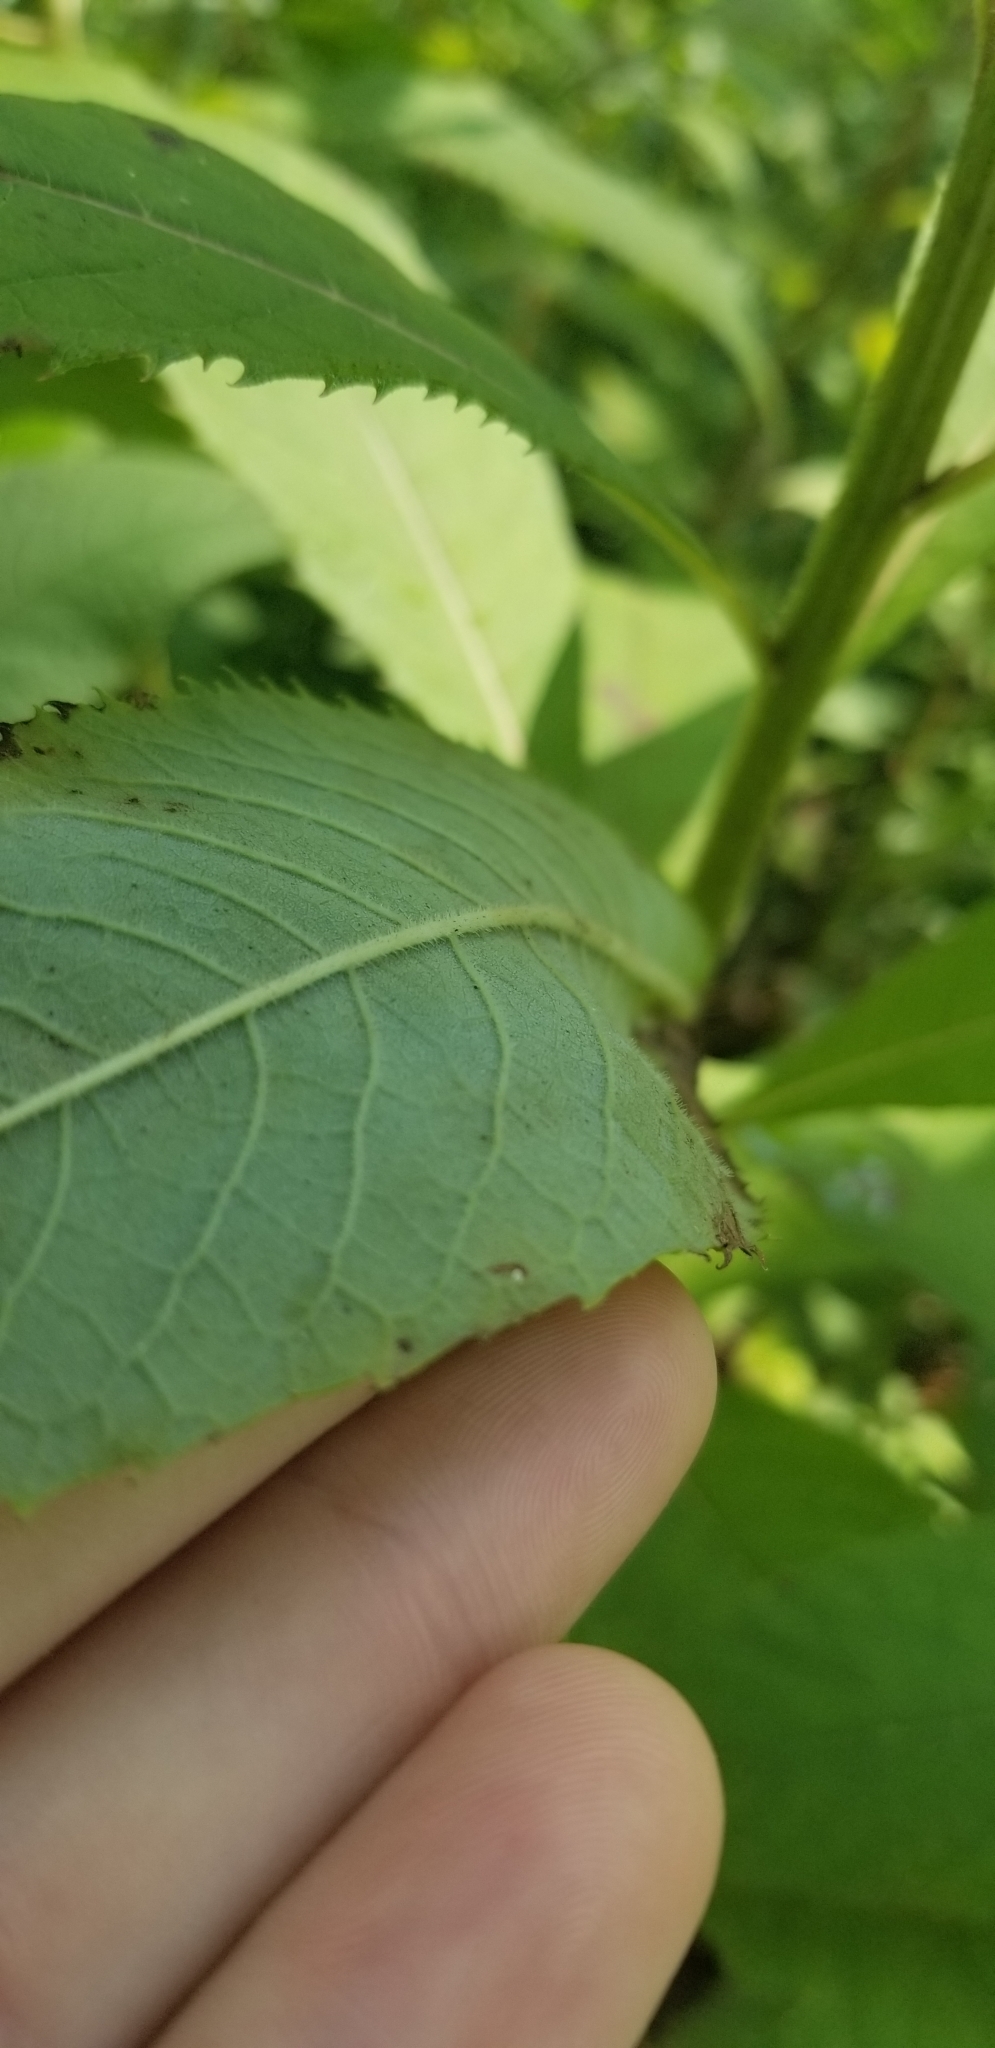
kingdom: Plantae
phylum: Tracheophyta
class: Magnoliopsida
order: Asterales
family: Asteraceae
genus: Vernonia
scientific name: Vernonia gigantea
